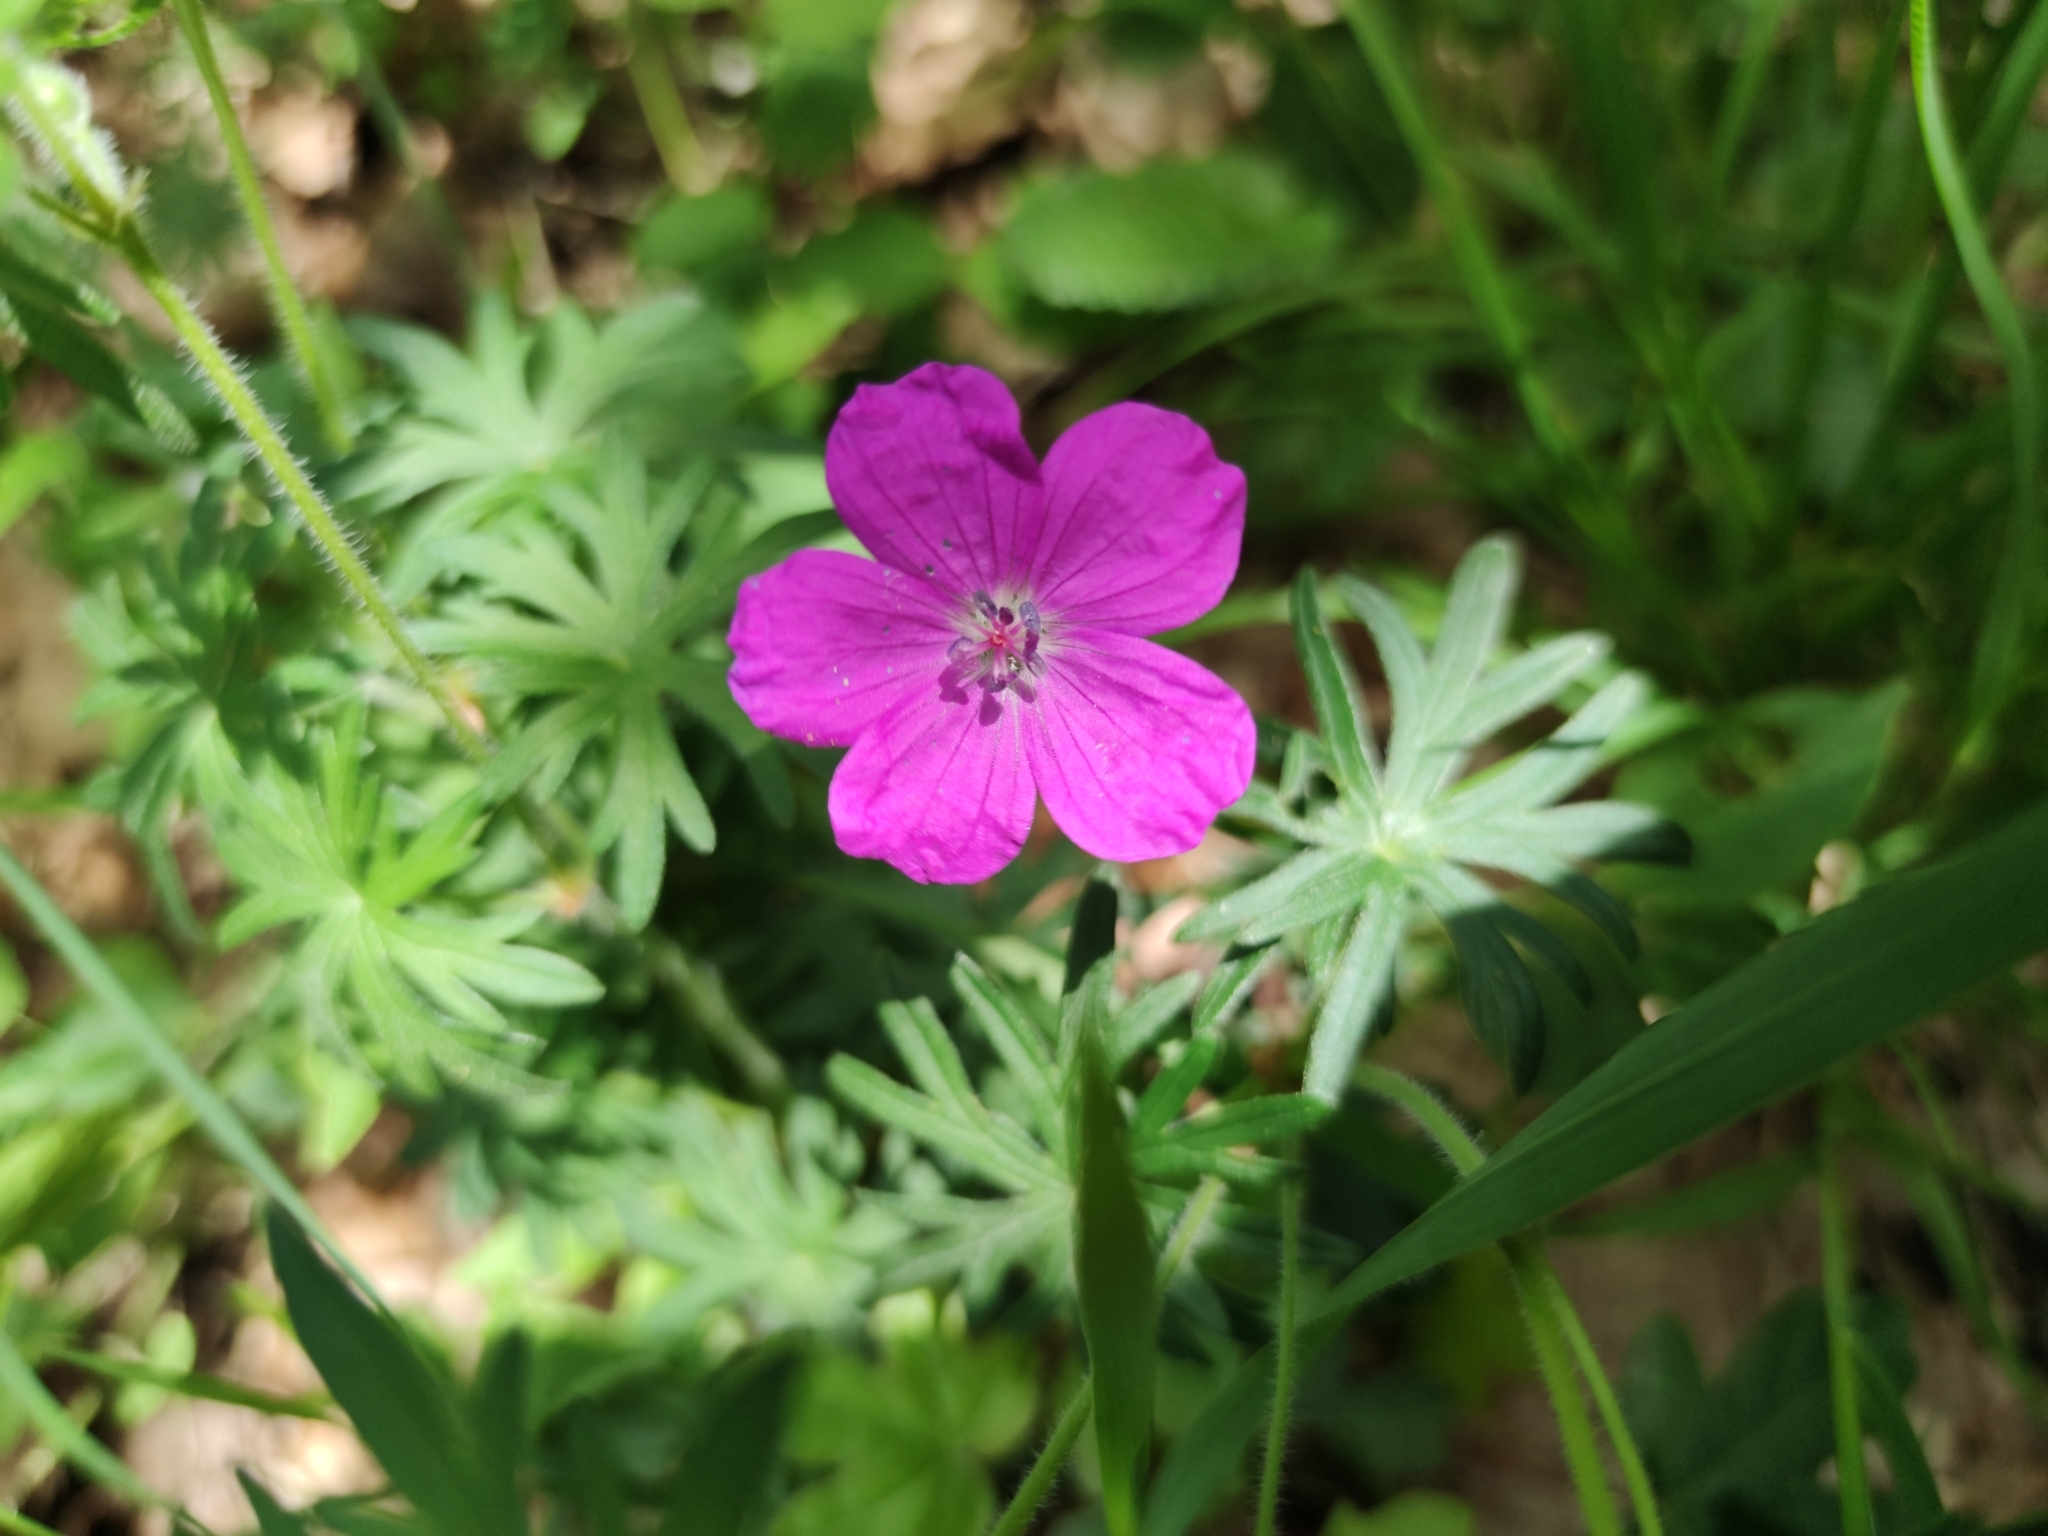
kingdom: Plantae
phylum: Tracheophyta
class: Magnoliopsida
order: Geraniales
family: Geraniaceae
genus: Geranium
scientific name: Geranium sanguineum
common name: Bloody crane's-bill
